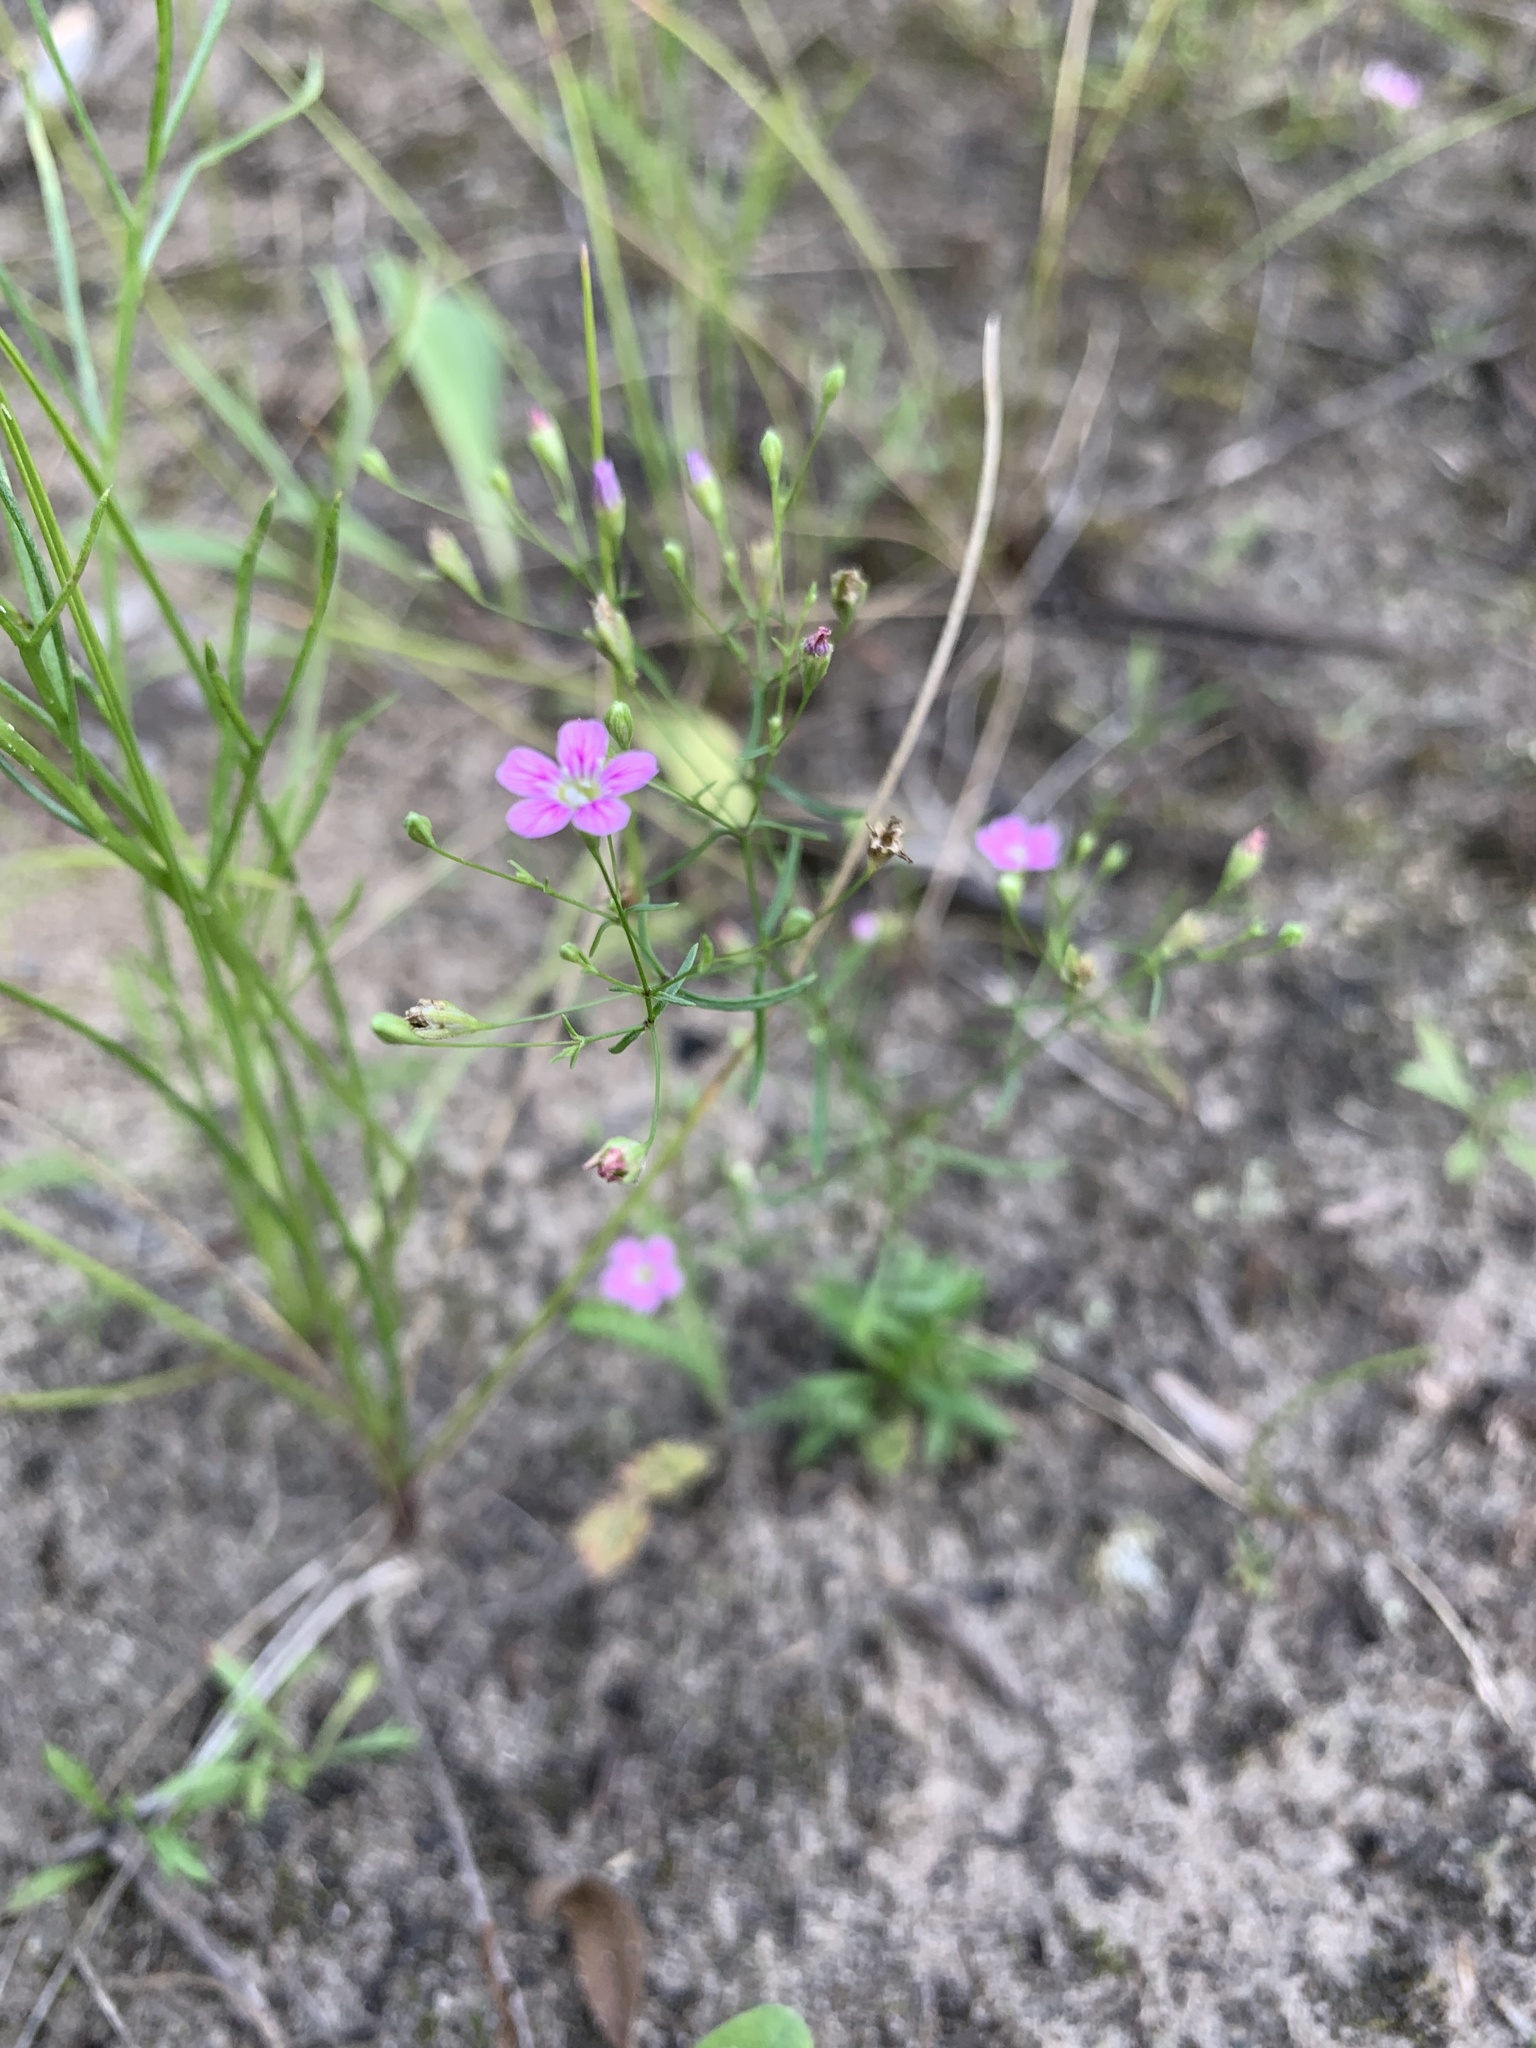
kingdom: Plantae
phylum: Tracheophyta
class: Magnoliopsida
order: Caryophyllales
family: Caryophyllaceae
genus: Psammophiliella
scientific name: Psammophiliella muralis
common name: Cushion baby's-breath
